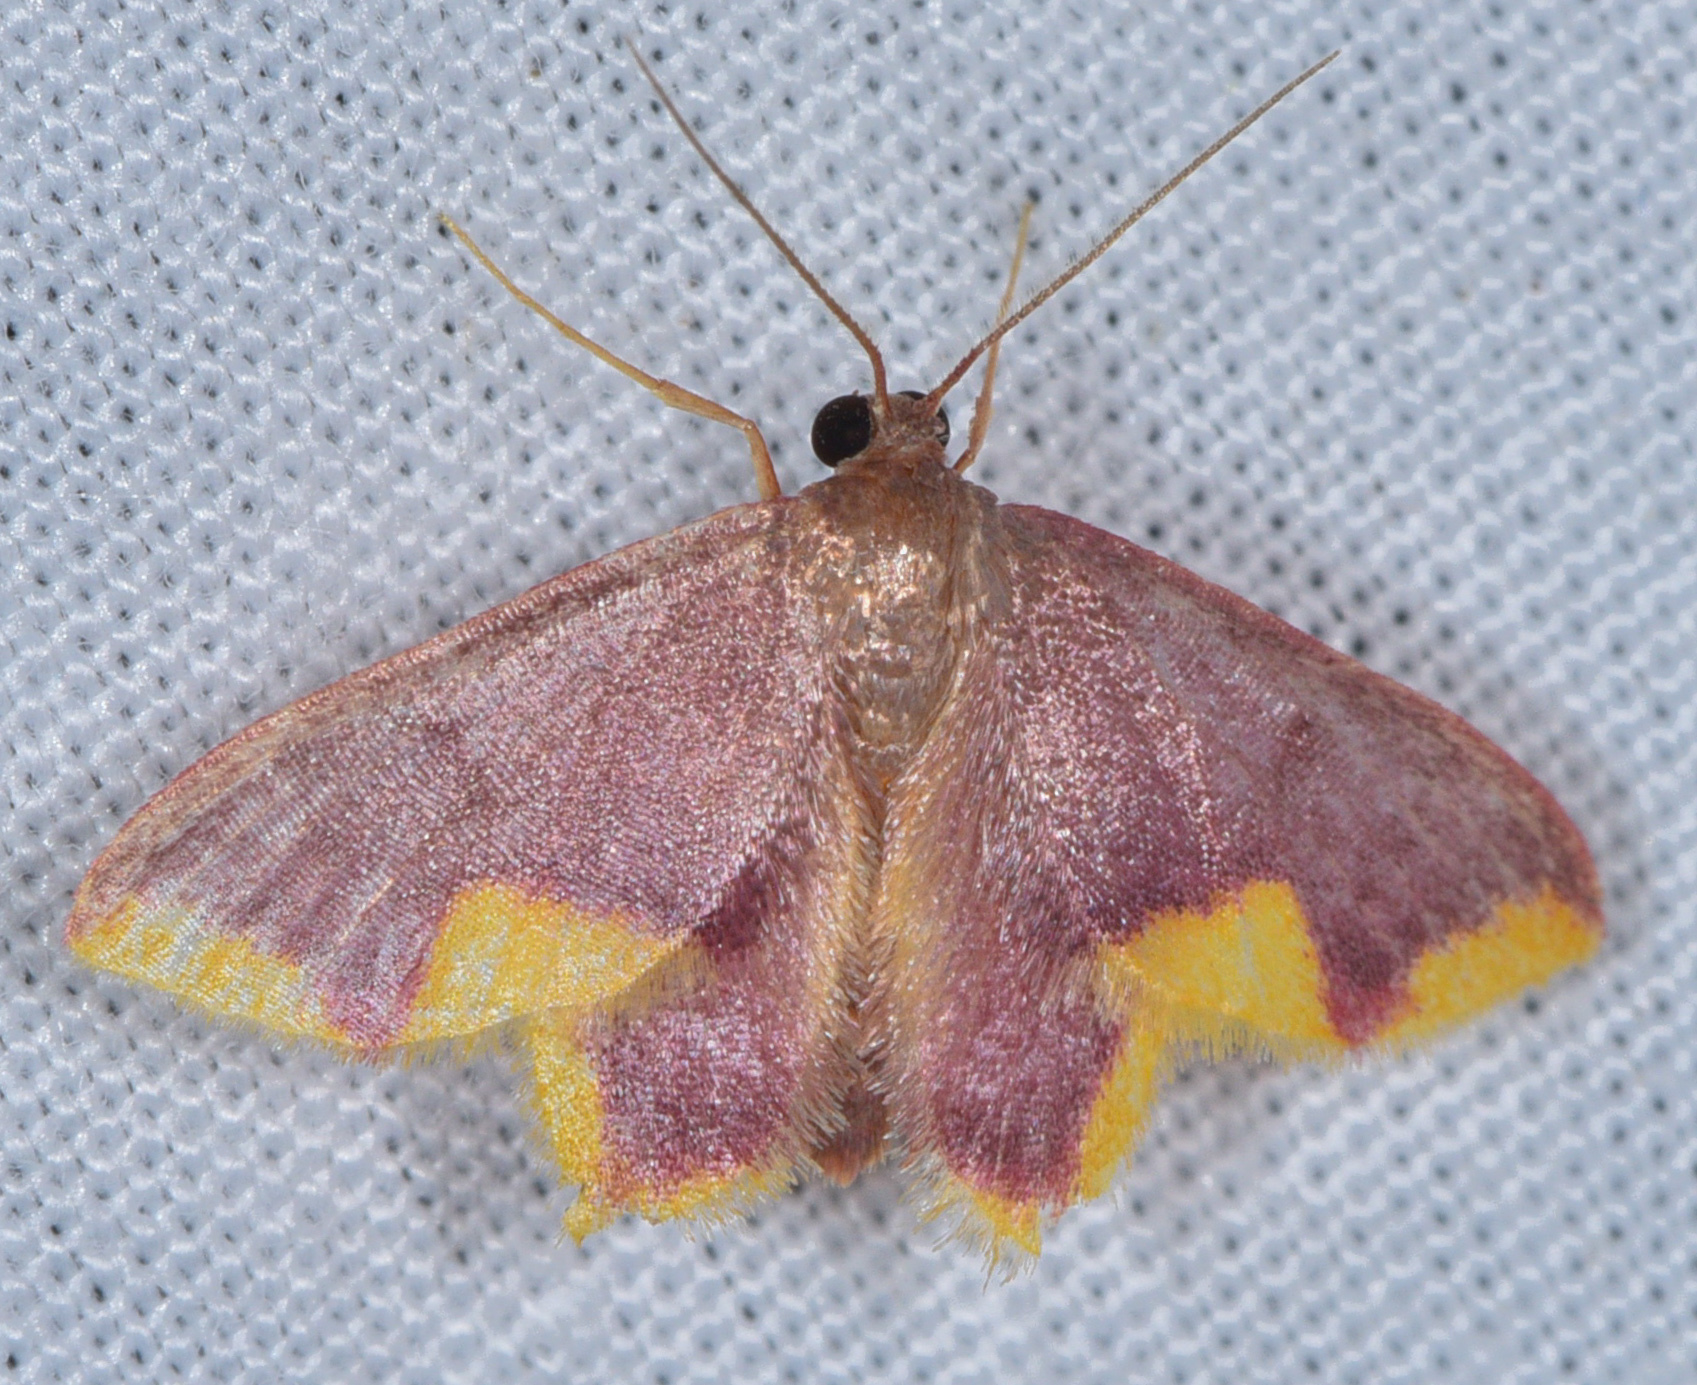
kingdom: Animalia
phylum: Arthropoda
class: Insecta
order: Lepidoptera
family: Geometridae
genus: Tricentrogyna
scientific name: Tricentrogyna violescens
